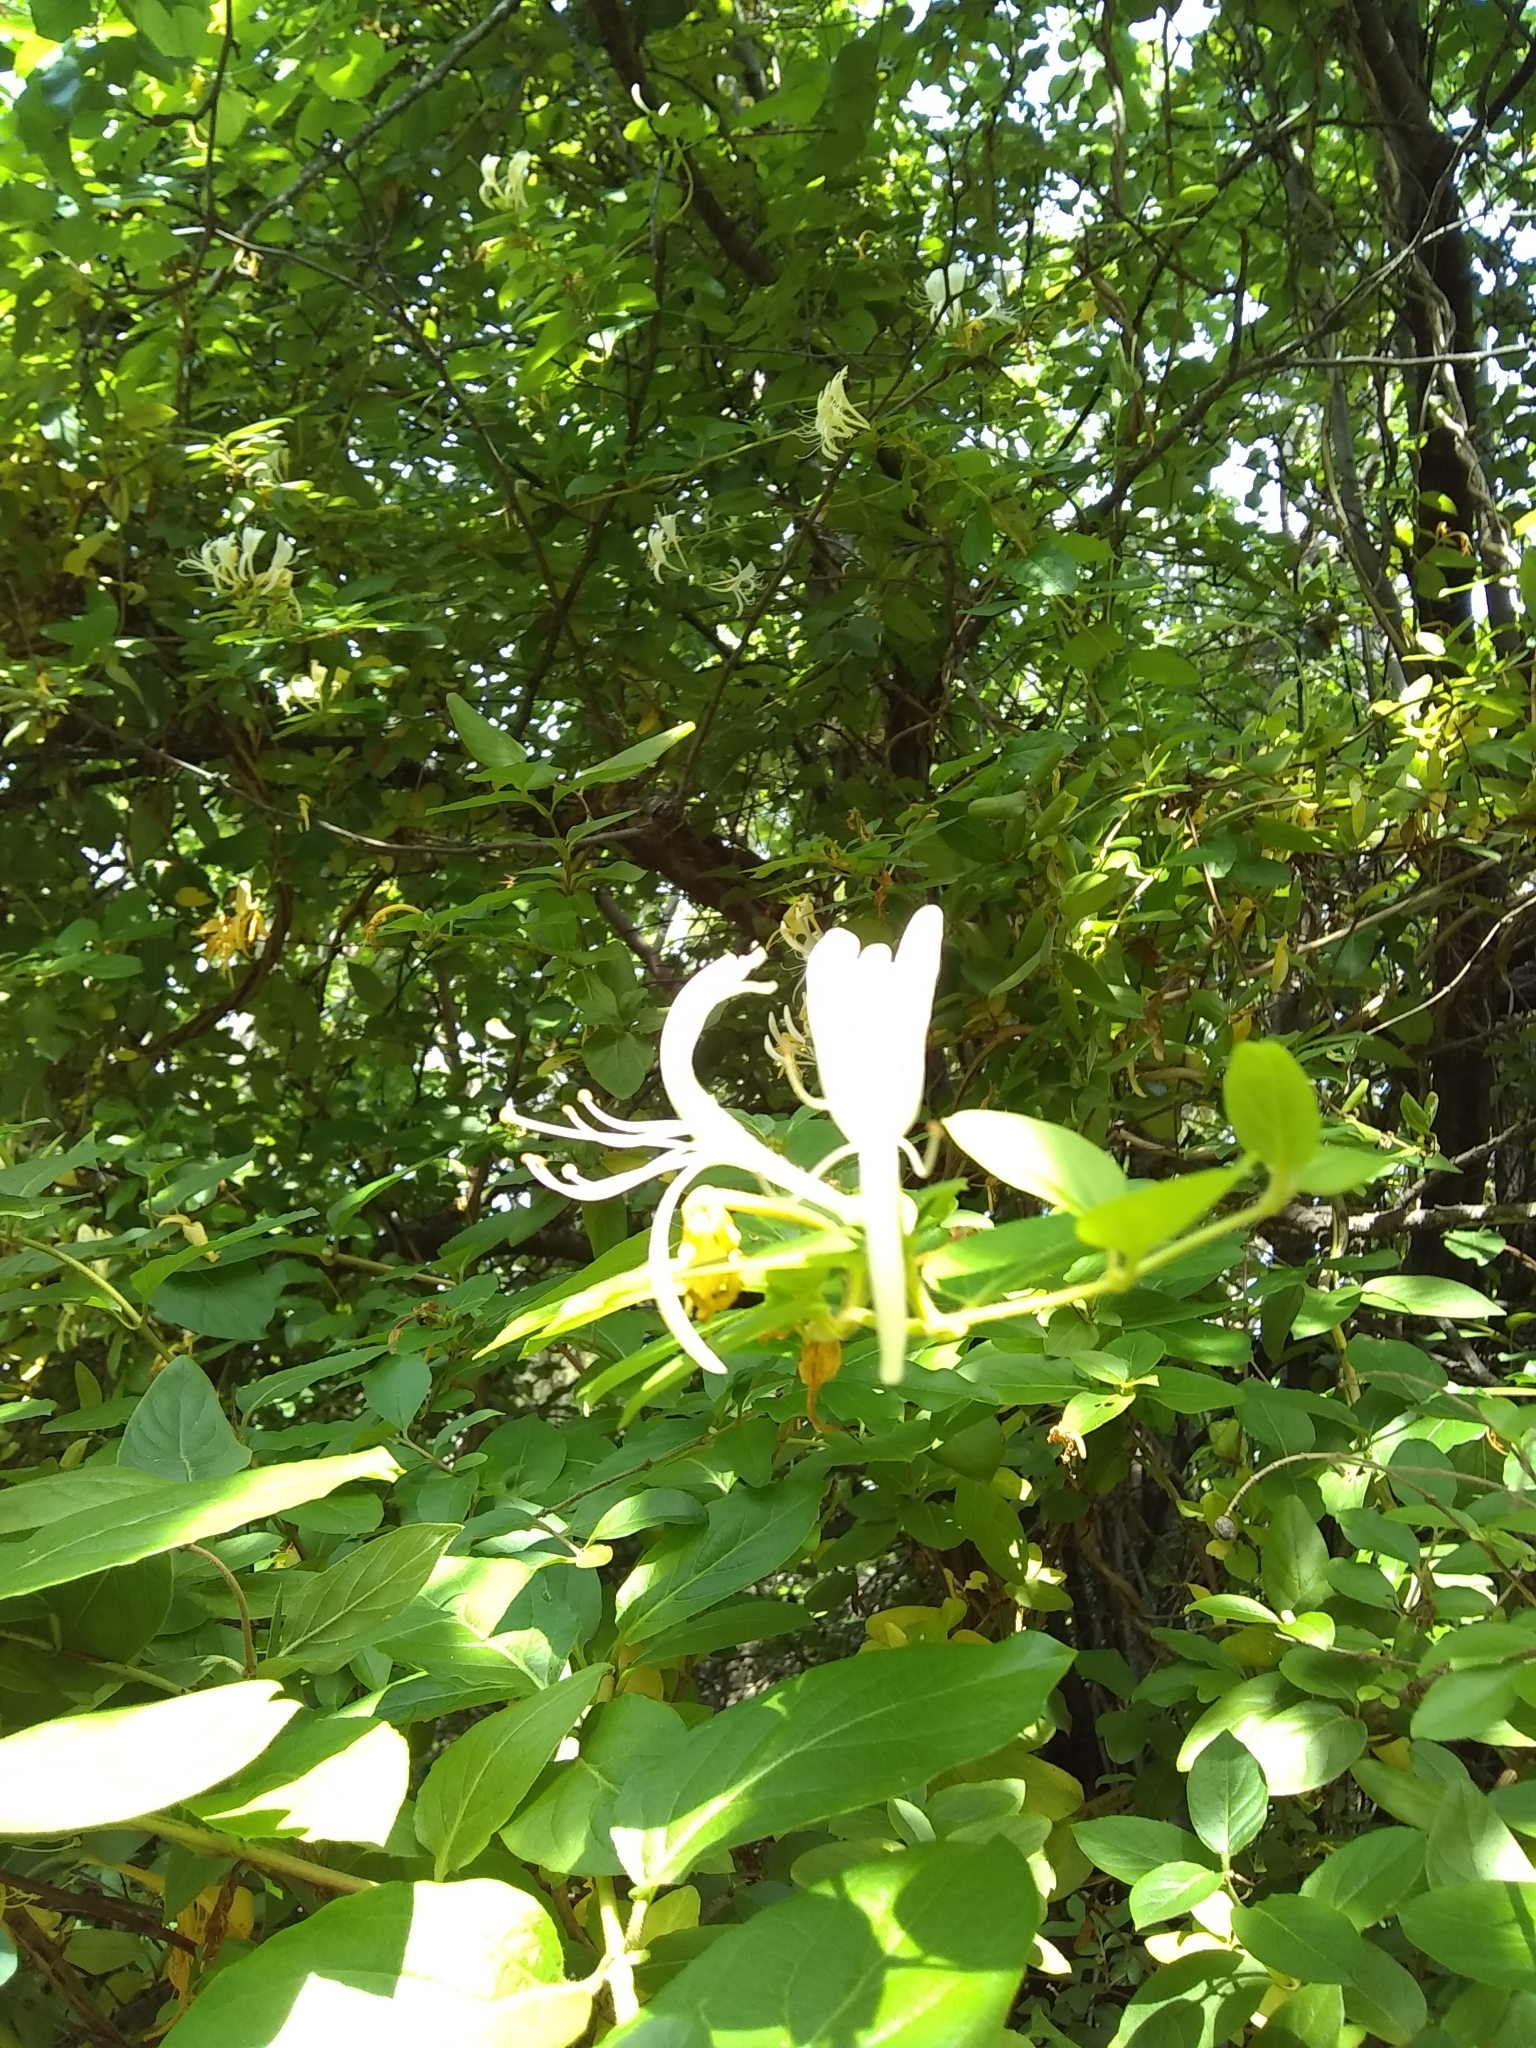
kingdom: Plantae
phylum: Tracheophyta
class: Magnoliopsida
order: Dipsacales
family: Caprifoliaceae
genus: Lonicera
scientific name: Lonicera japonica
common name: Japanese honeysuckle
